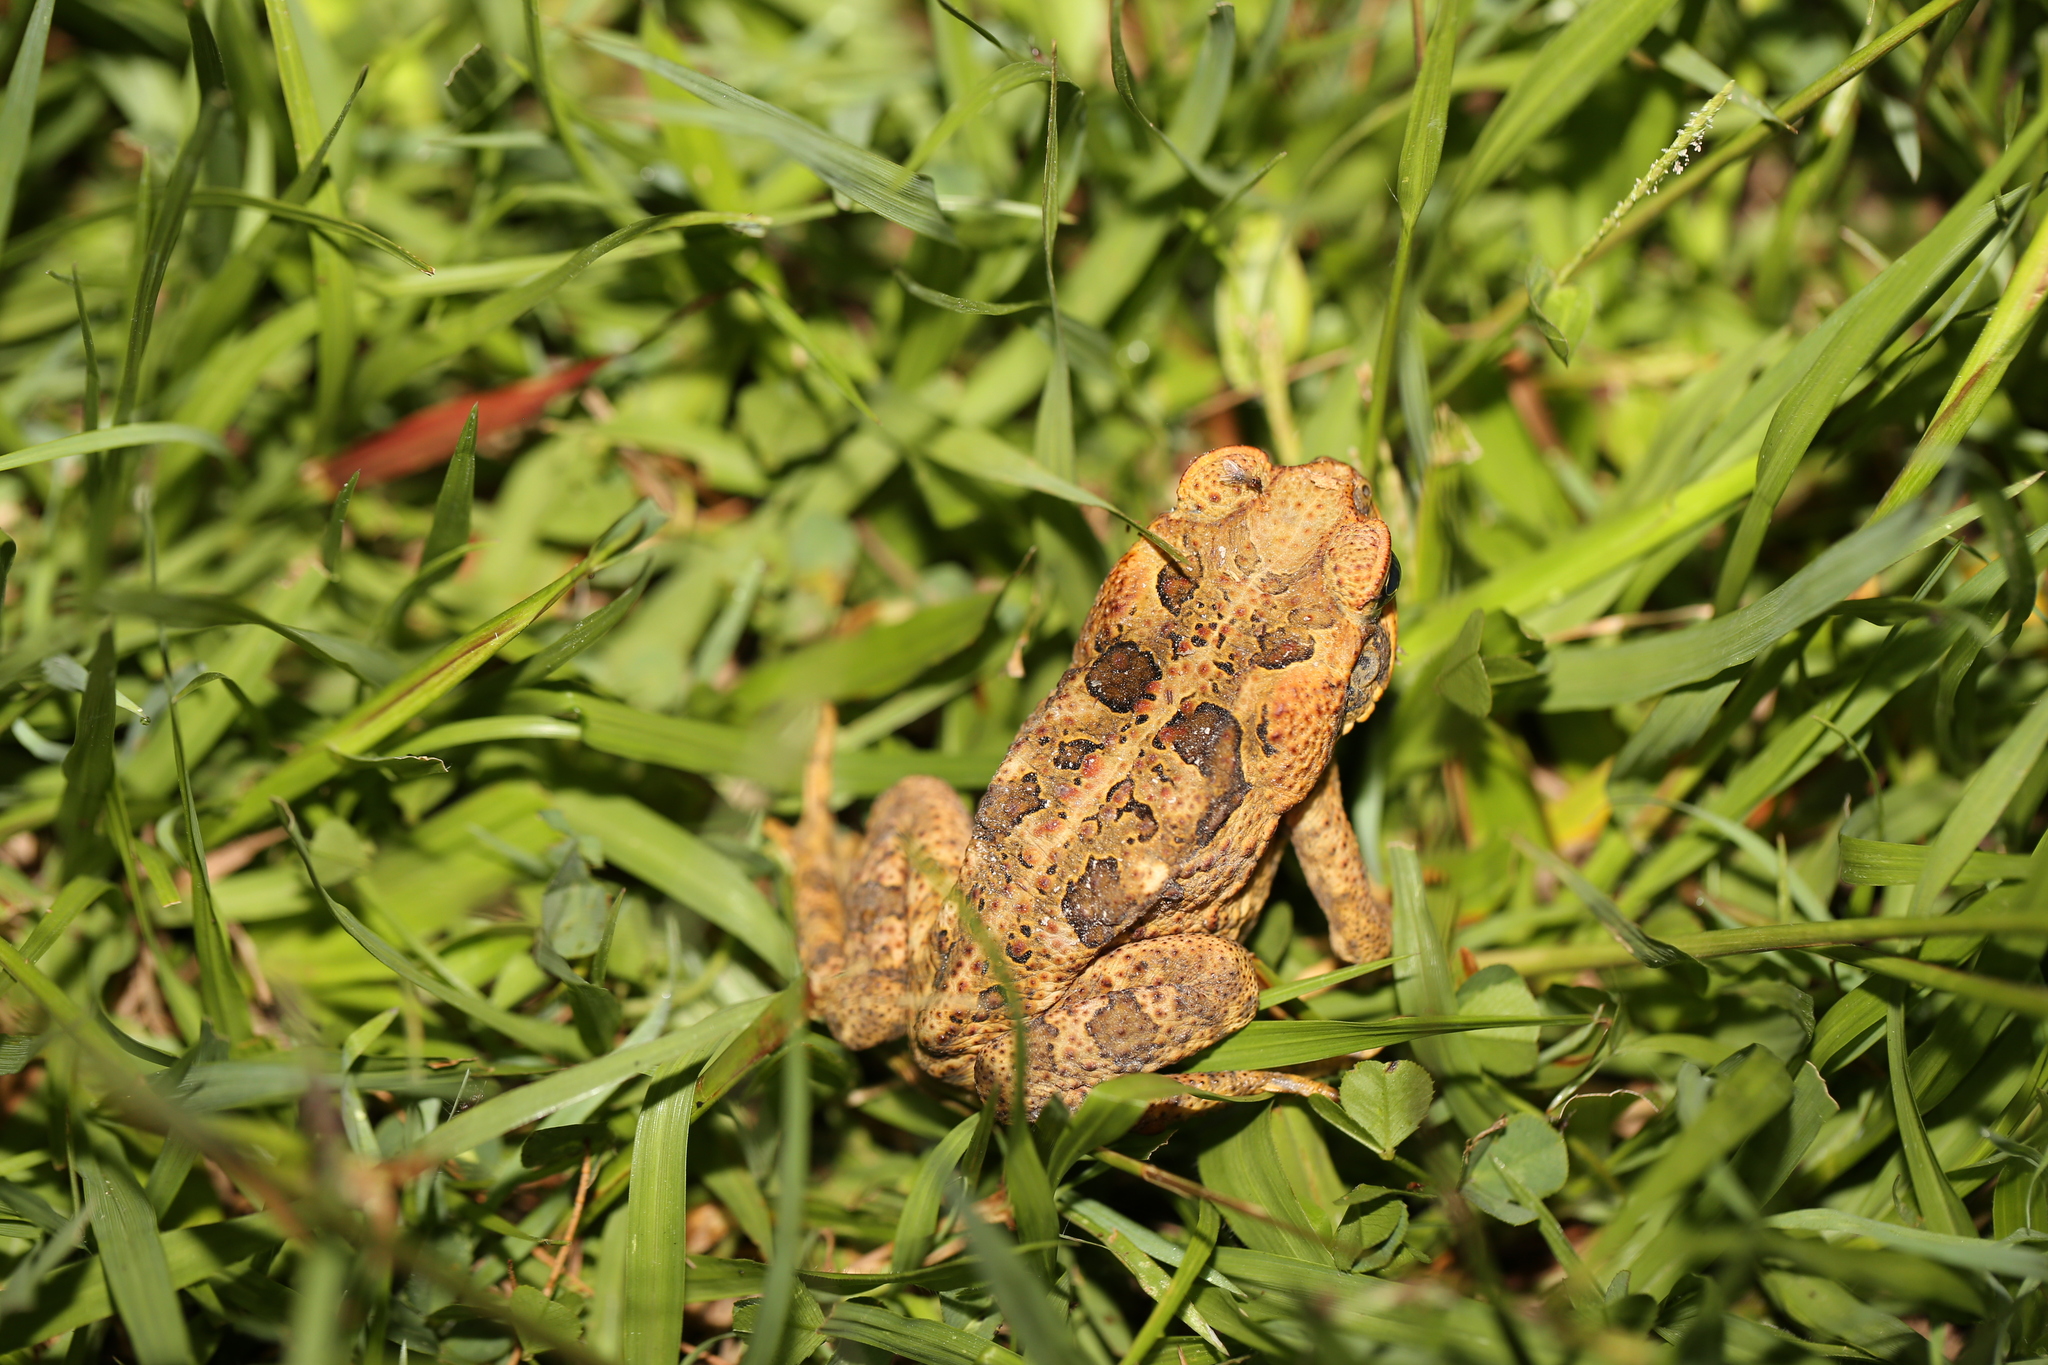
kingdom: Animalia
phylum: Chordata
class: Amphibia
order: Anura
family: Bufonidae
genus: Rhinella
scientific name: Rhinella marina
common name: Cane toad
